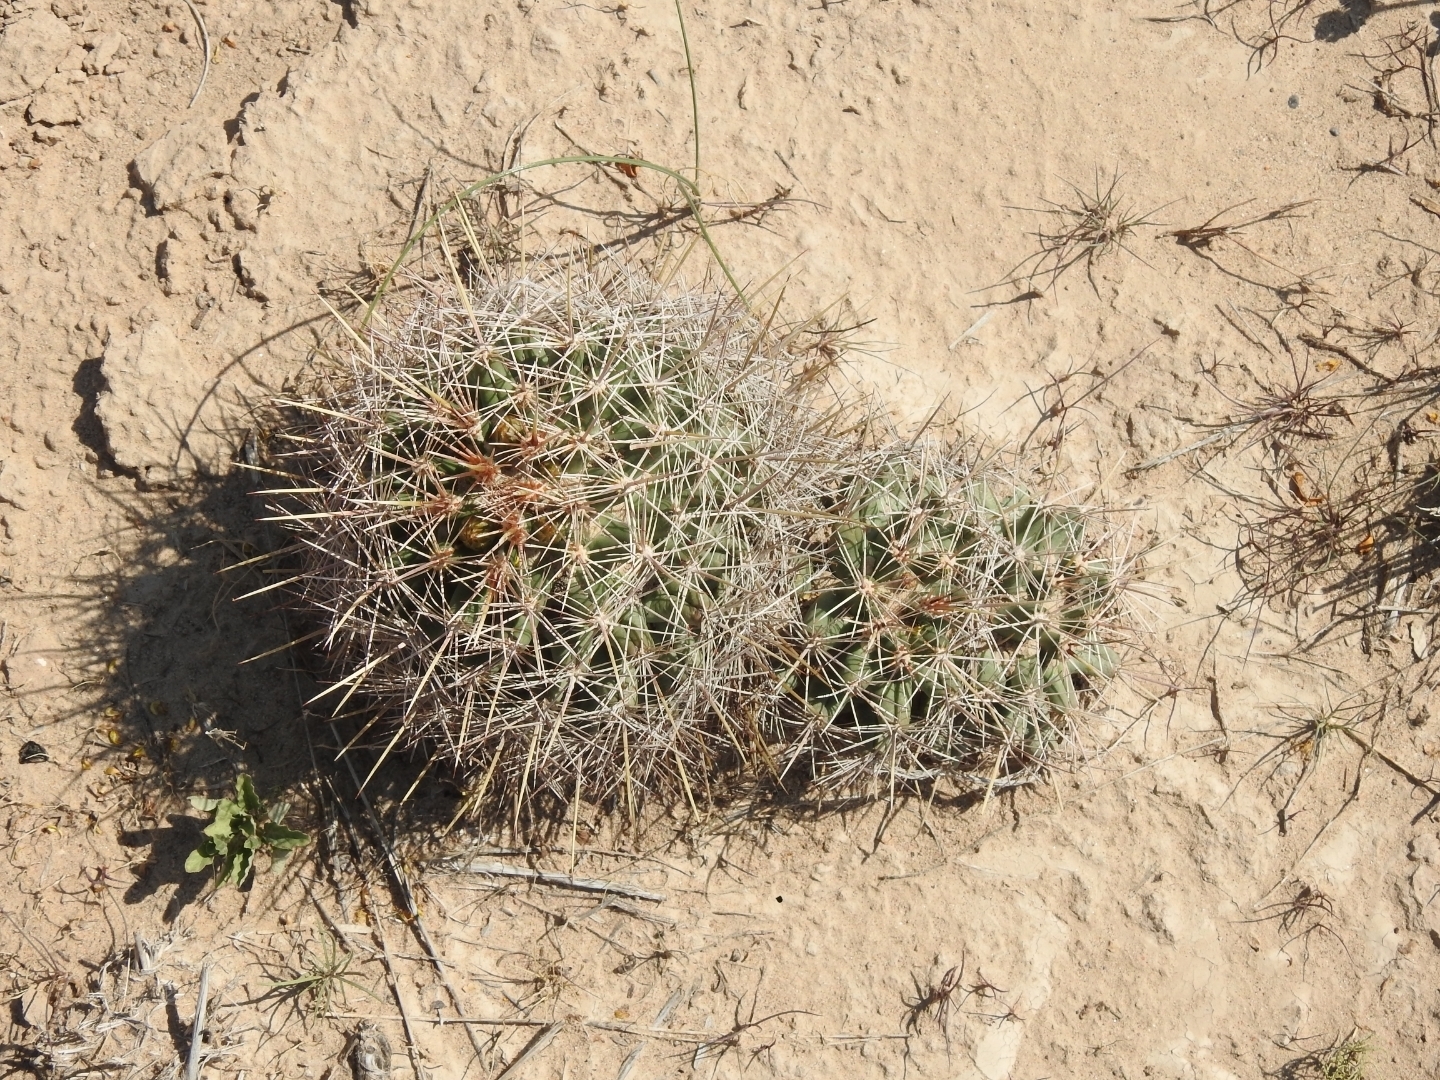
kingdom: Plantae
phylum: Tracheophyta
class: Magnoliopsida
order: Caryophyllales
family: Cactaceae
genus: Coryphantha
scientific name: Coryphantha robustispina
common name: Pima pineapple cactus
